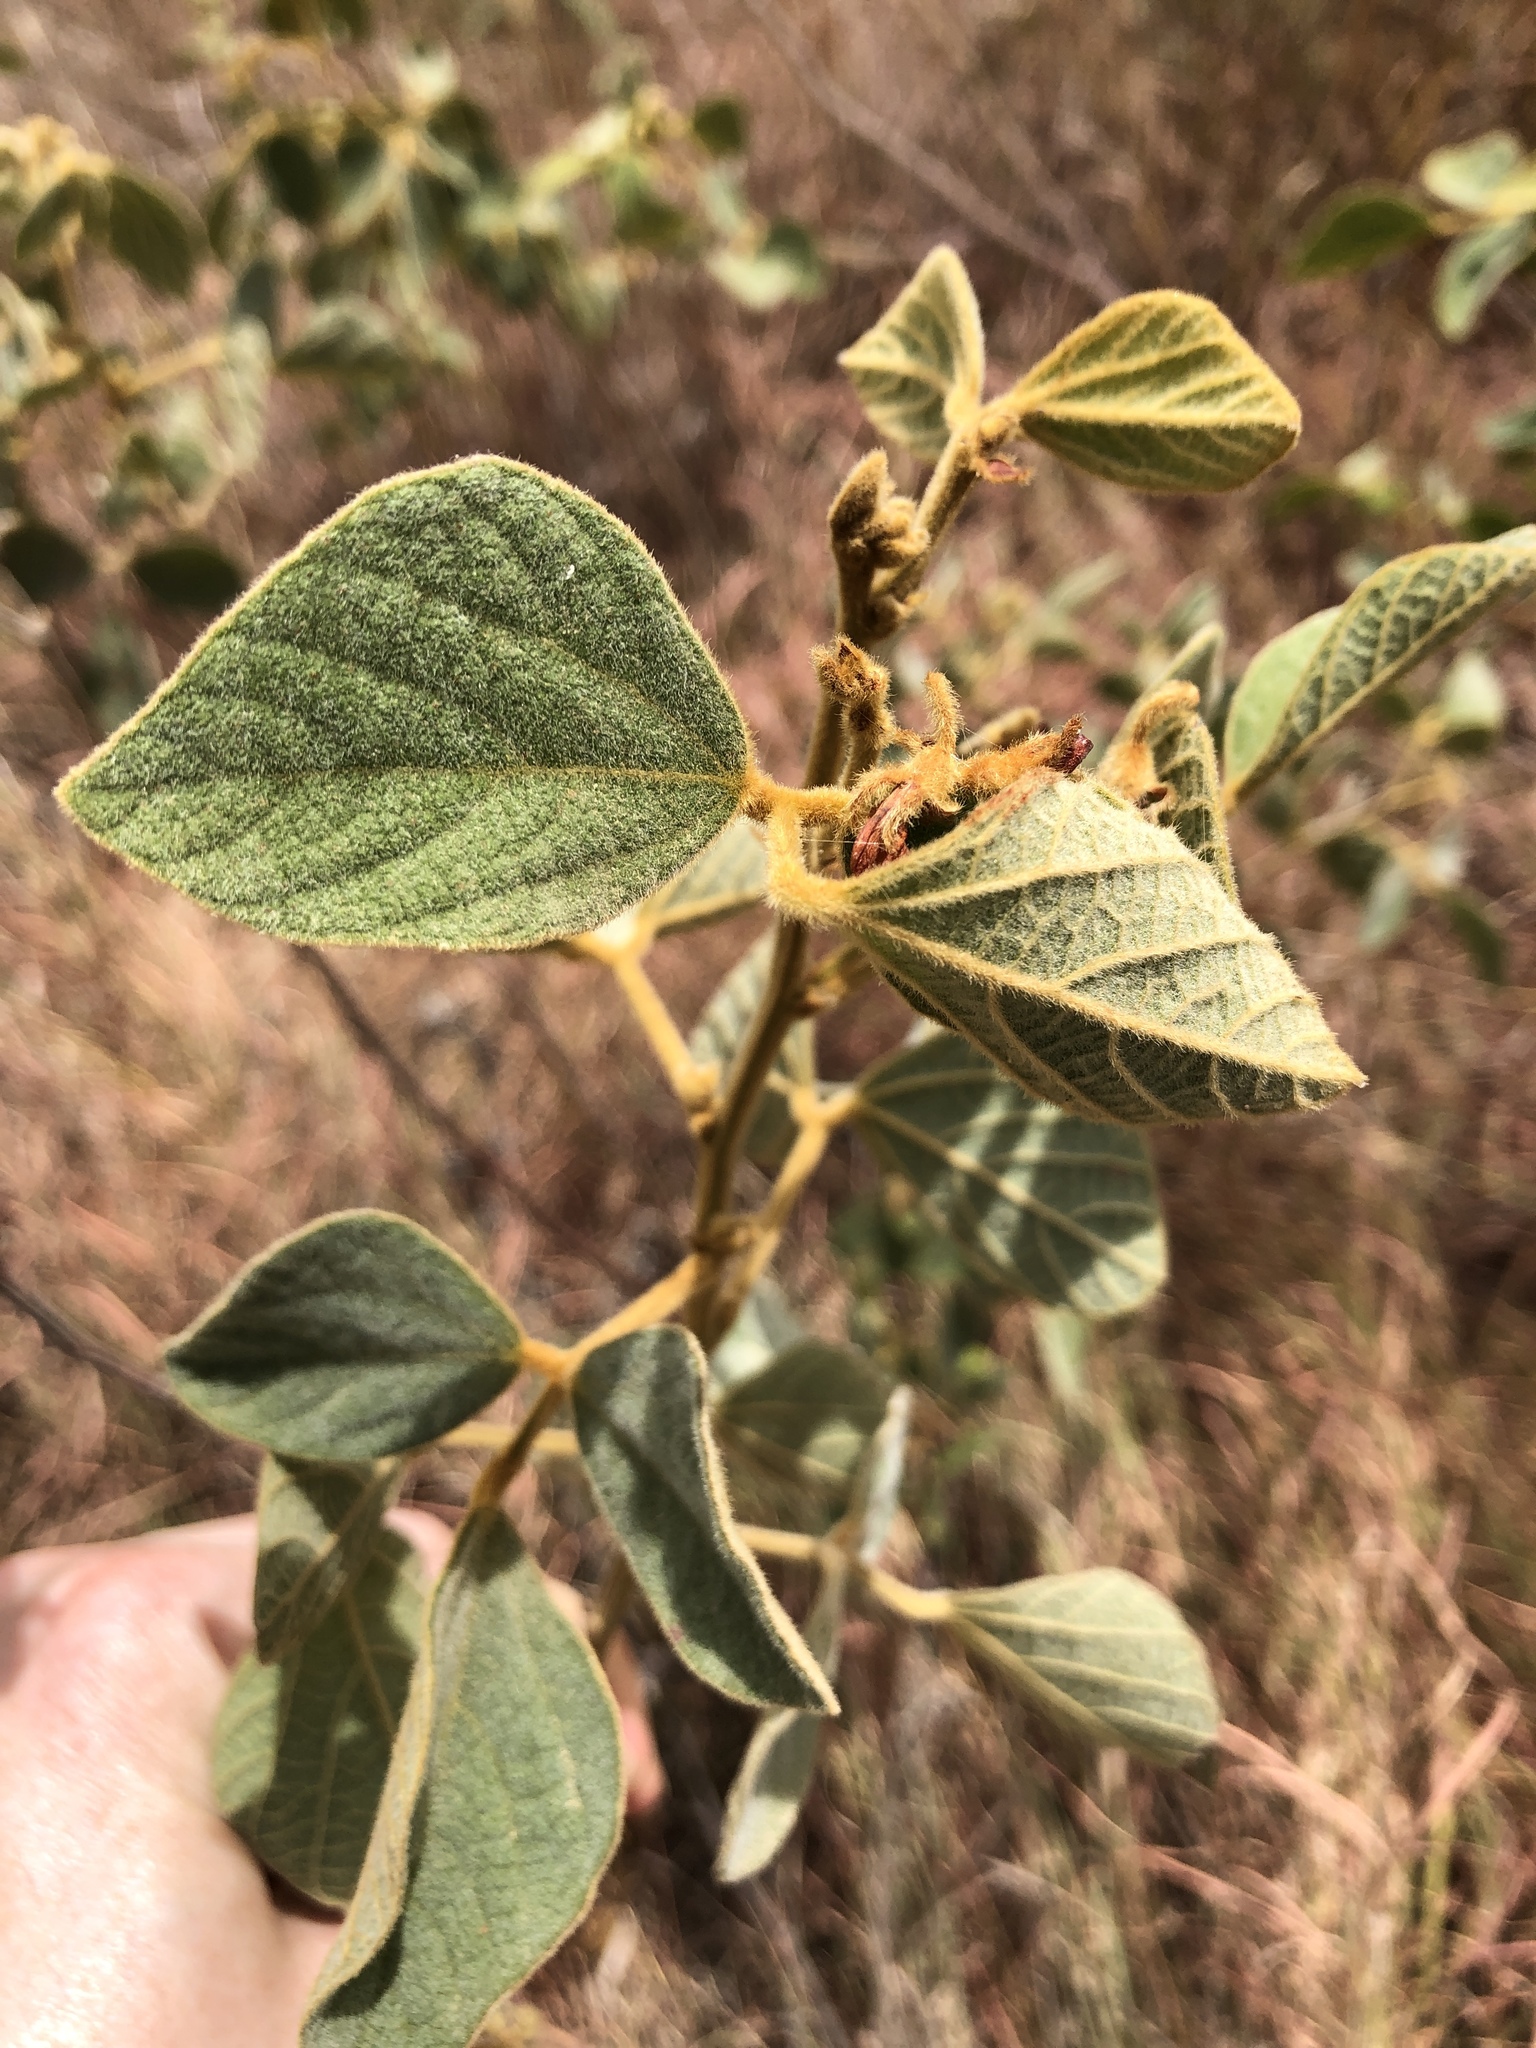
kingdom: Plantae
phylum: Tracheophyta
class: Magnoliopsida
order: Fabales
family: Fabaceae
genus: Cajanus
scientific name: Cajanus reticulatus
